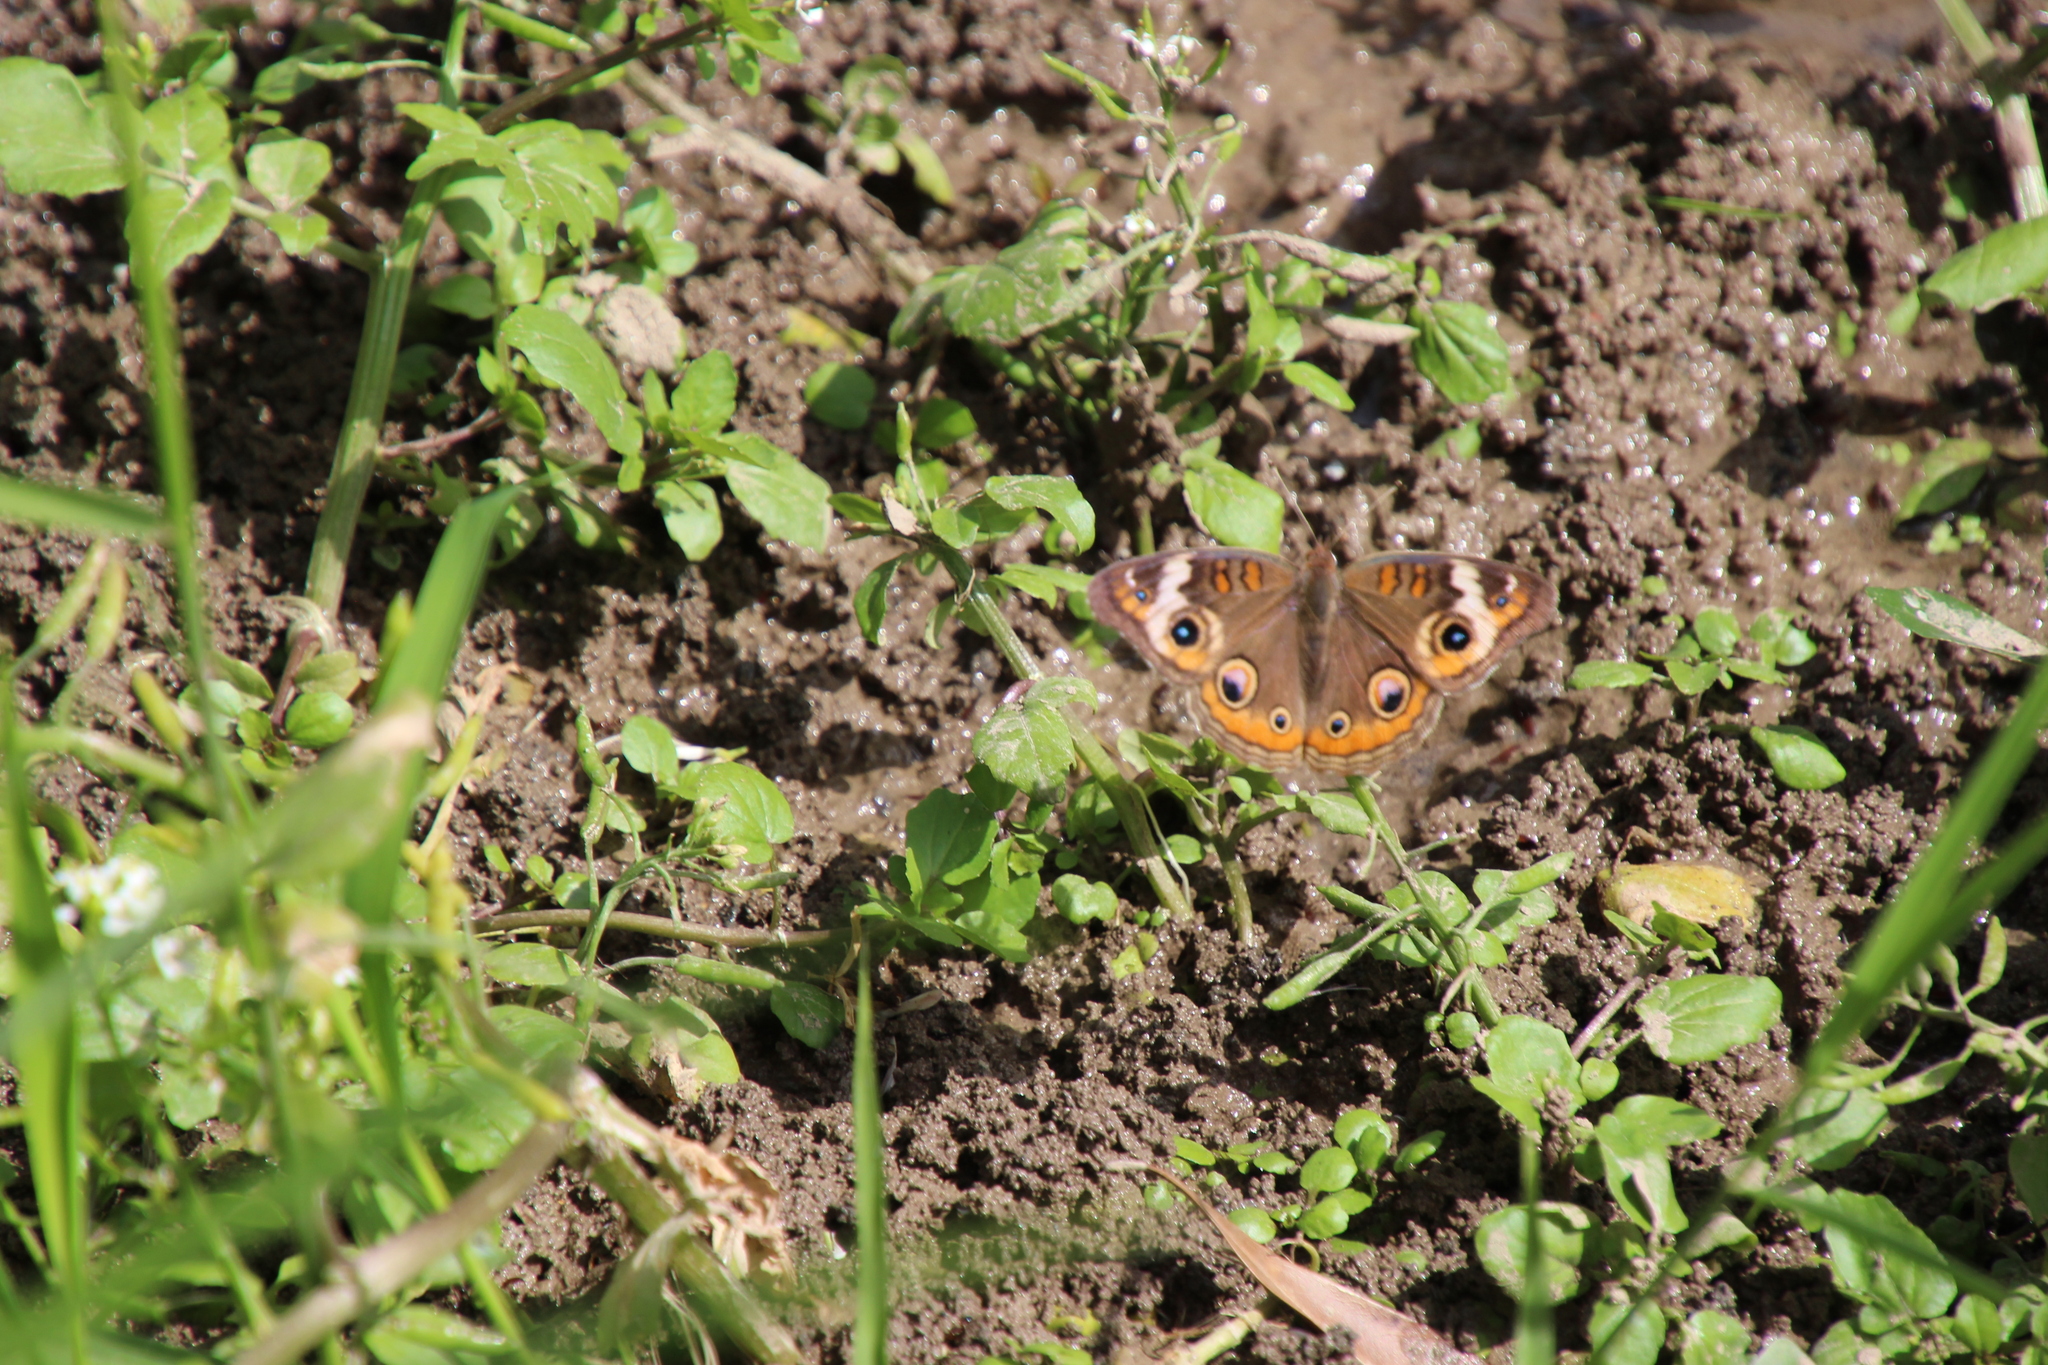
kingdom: Animalia
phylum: Arthropoda
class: Insecta
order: Lepidoptera
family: Nymphalidae
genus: Junonia
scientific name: Junonia coenia
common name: Common buckeye
